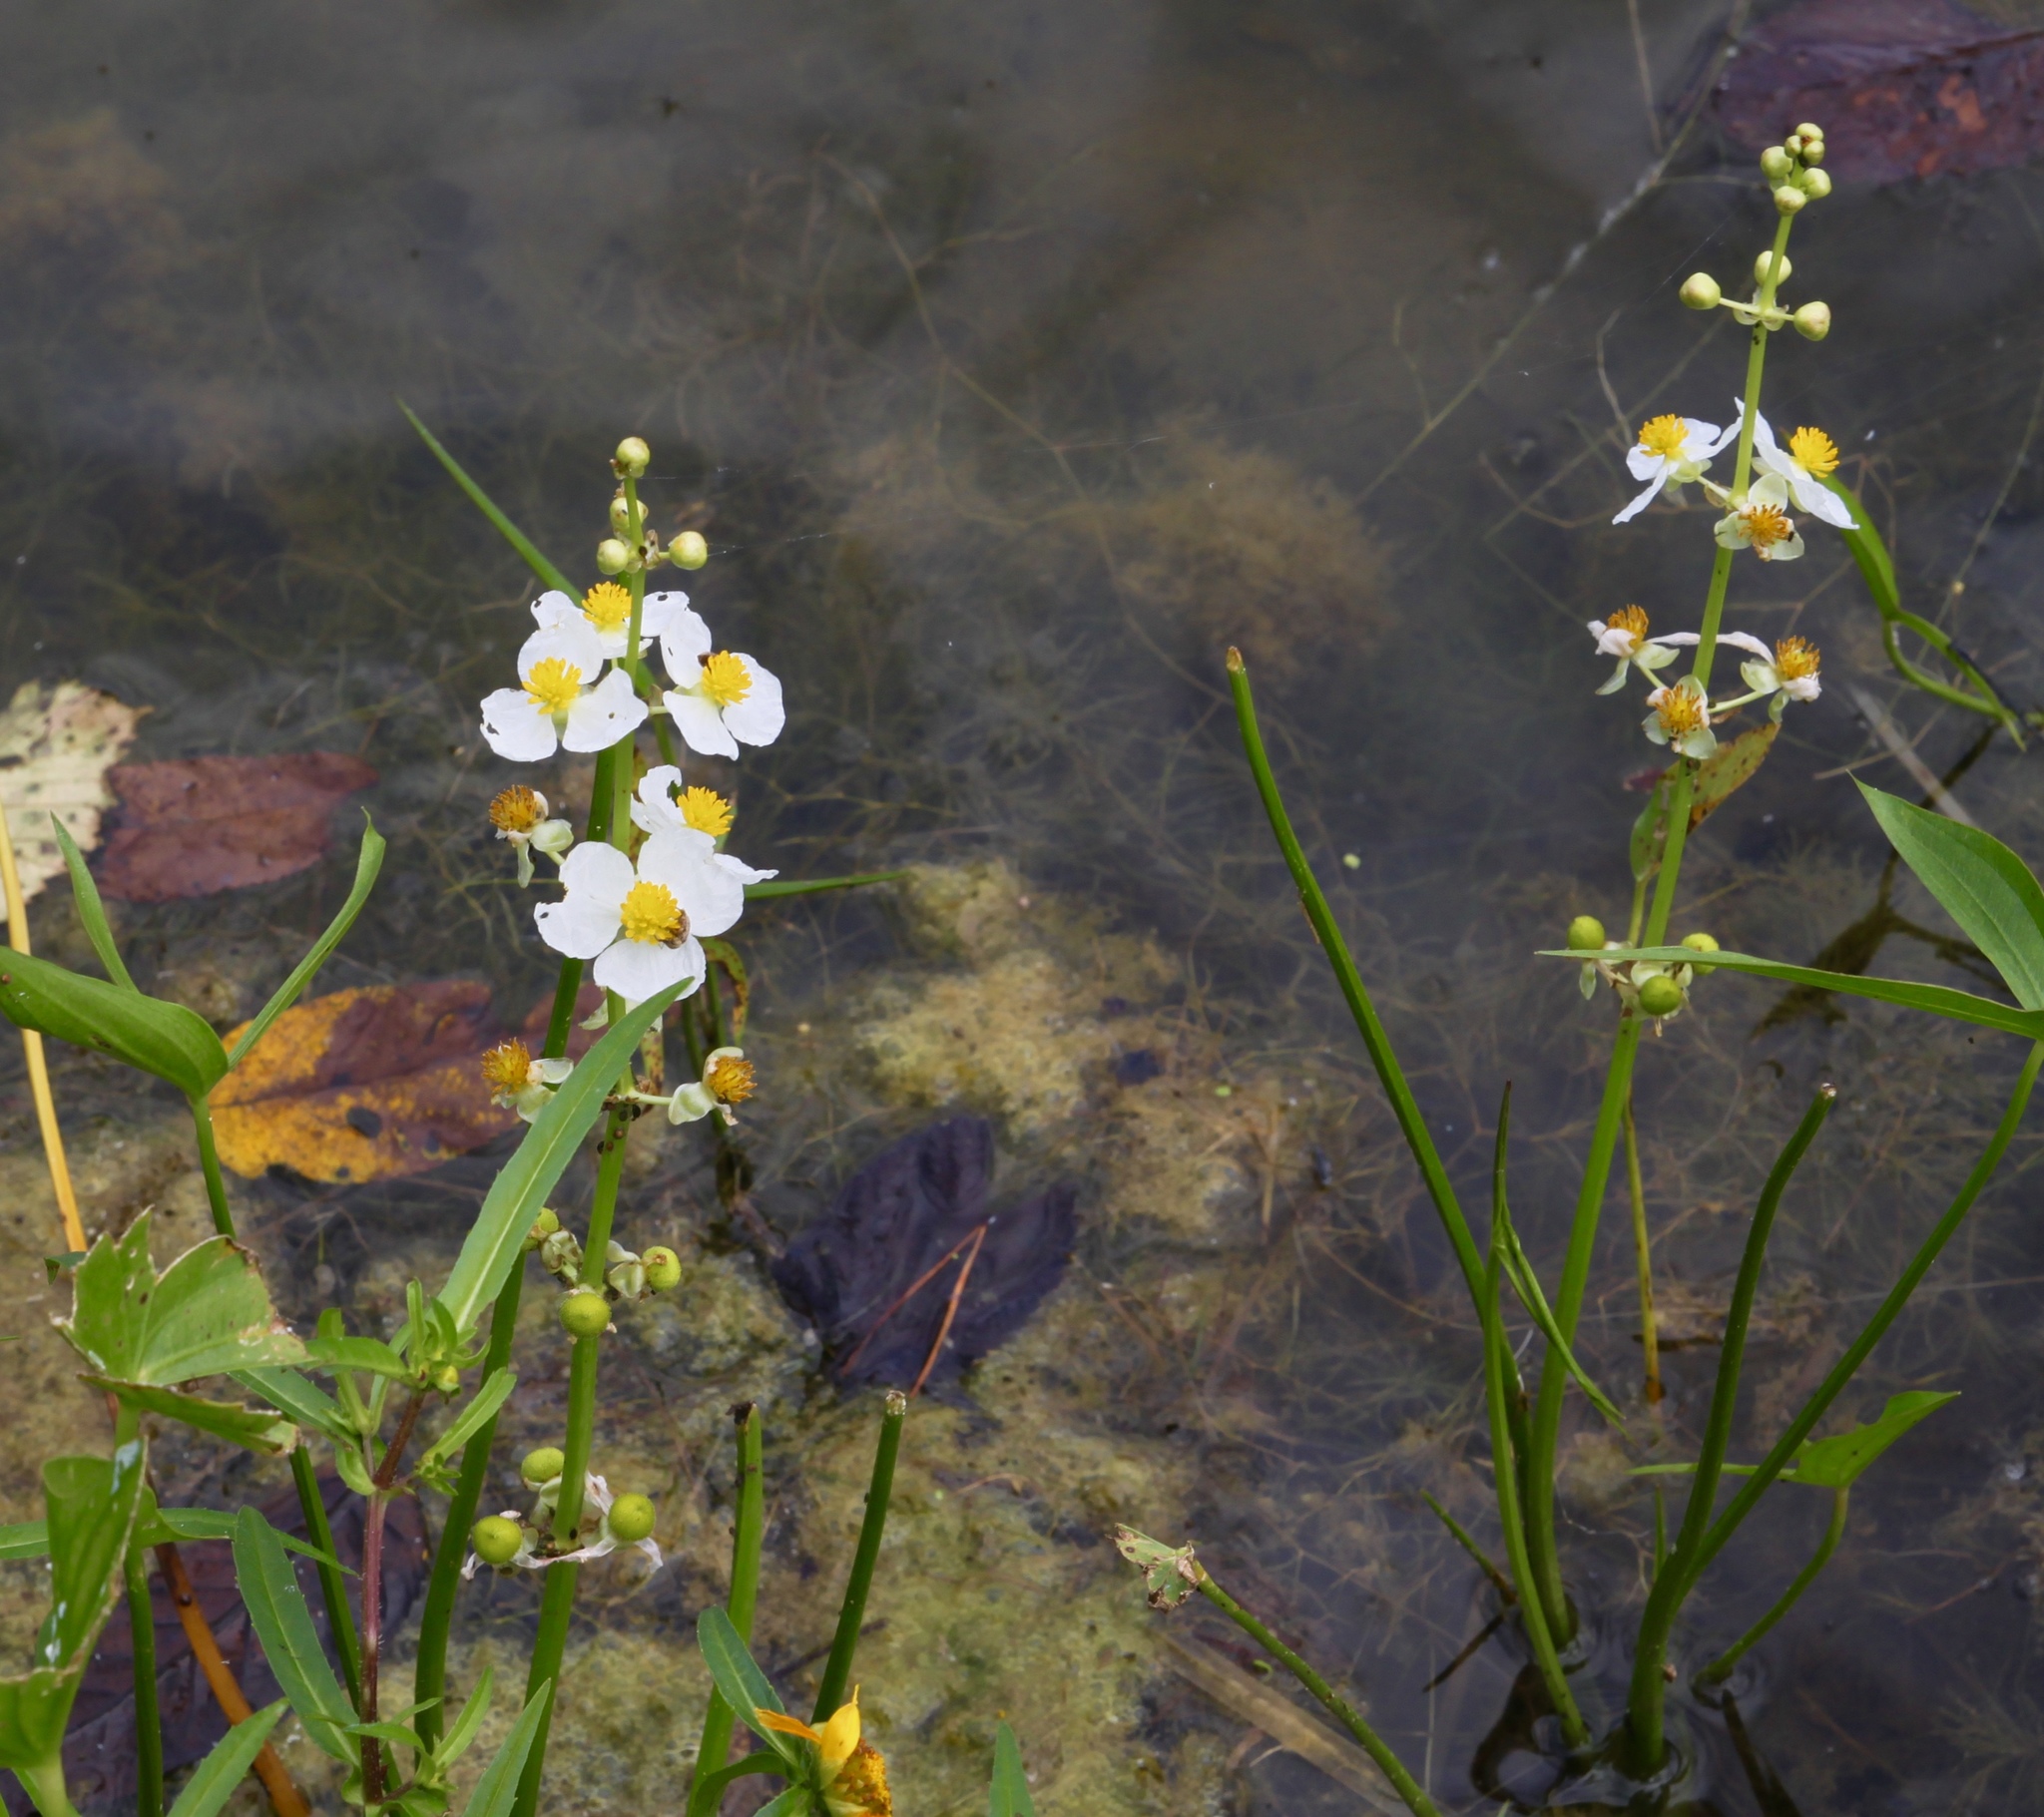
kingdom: Plantae
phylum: Tracheophyta
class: Liliopsida
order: Alismatales
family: Alismataceae
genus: Sagittaria
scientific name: Sagittaria latifolia
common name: Duck-potato
